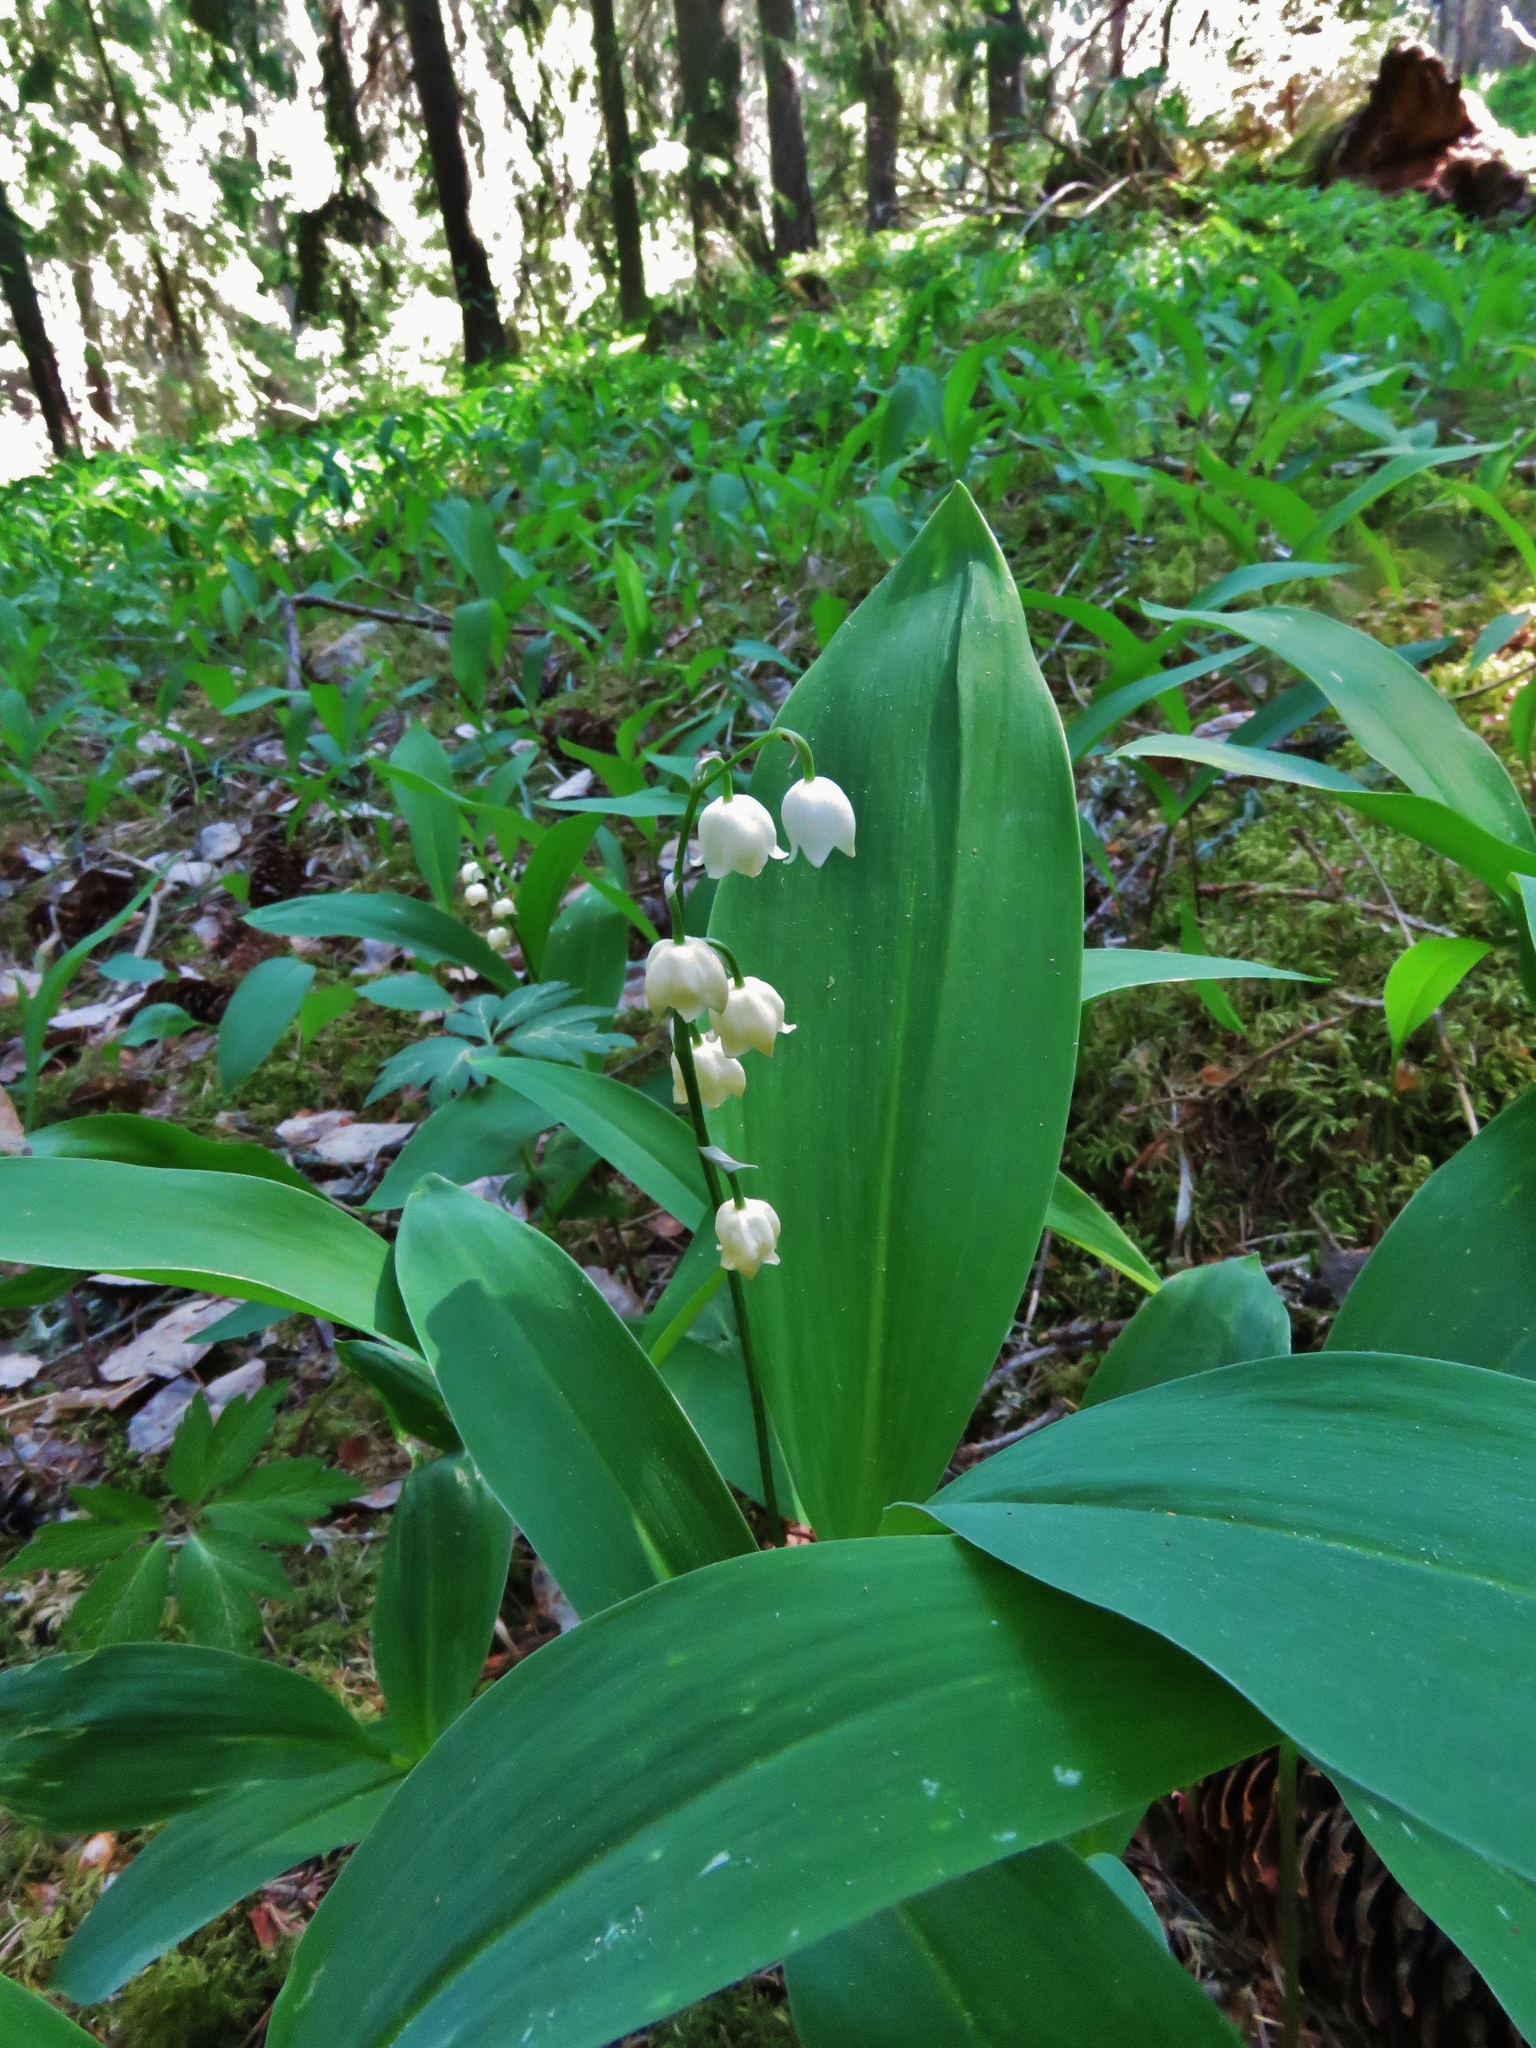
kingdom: Plantae
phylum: Tracheophyta
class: Liliopsida
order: Asparagales
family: Asparagaceae
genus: Convallaria
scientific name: Convallaria majalis
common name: Lily-of-the-valley
